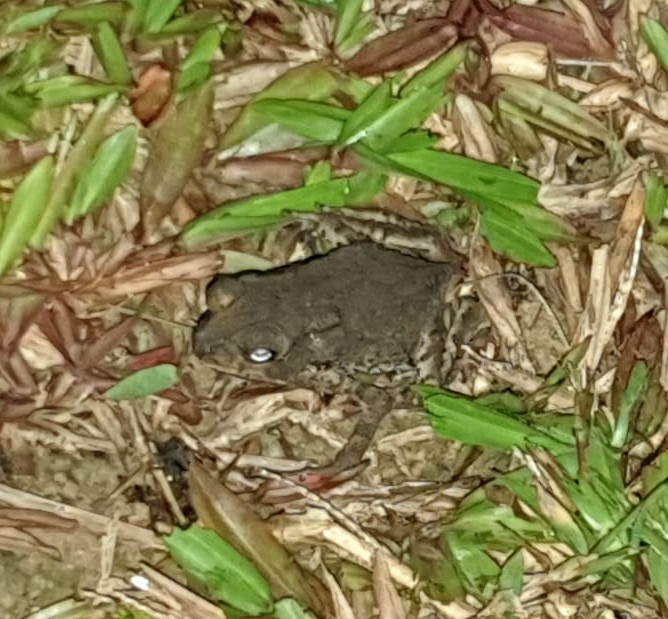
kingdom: Animalia
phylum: Chordata
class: Amphibia
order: Anura
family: Bufonidae
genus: Duttaphrynus
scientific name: Duttaphrynus melanostictus
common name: Common sunda toad
